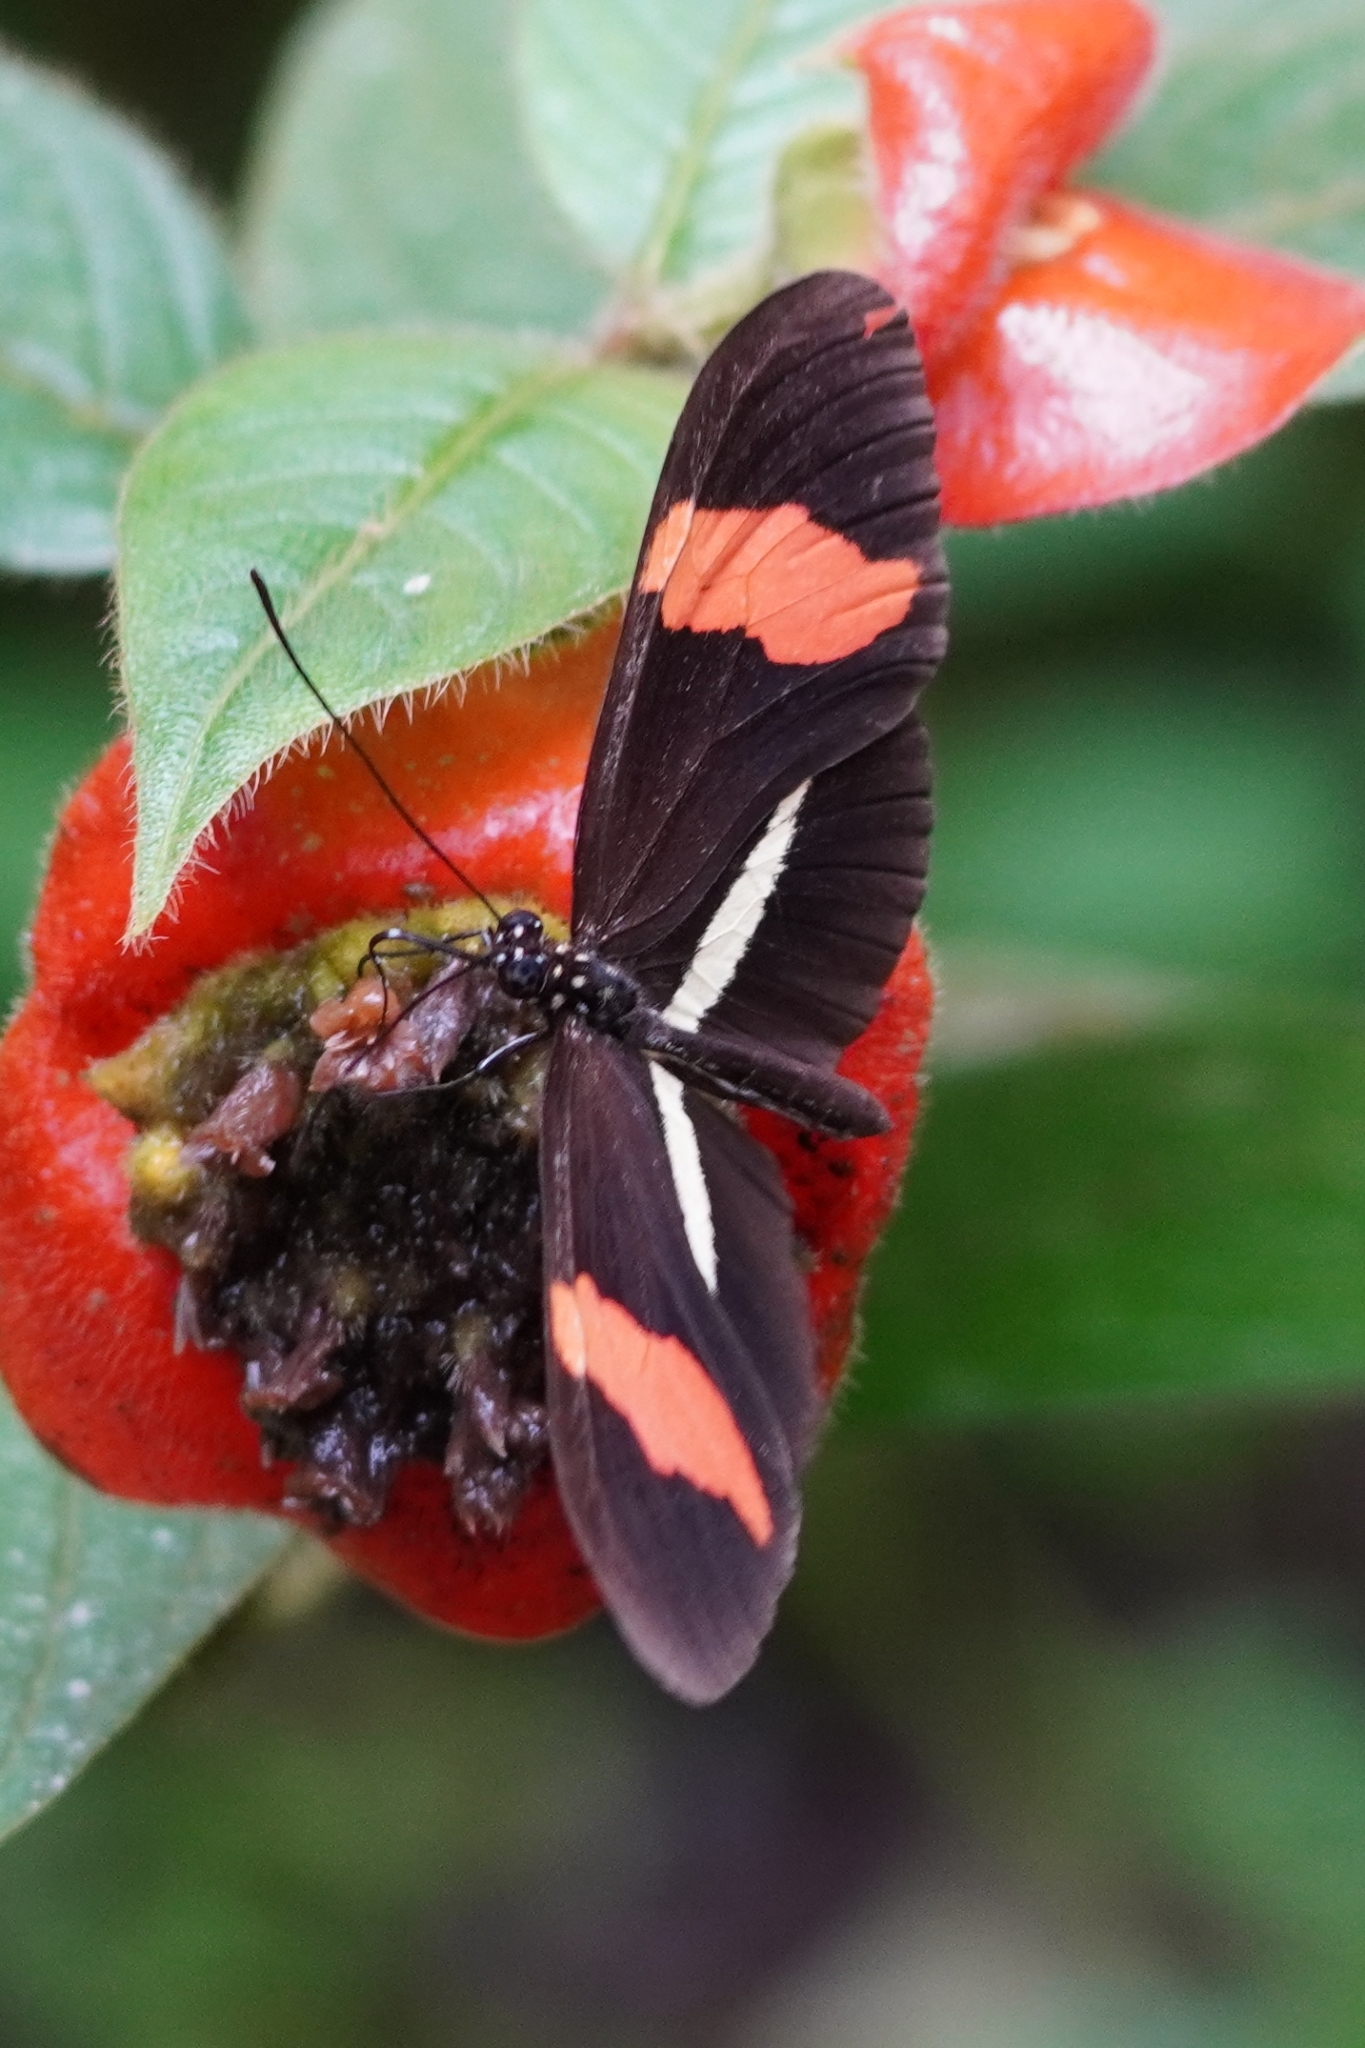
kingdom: Animalia
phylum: Arthropoda
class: Insecta
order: Lepidoptera
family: Nymphalidae
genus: Tirumala
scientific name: Tirumala petiverana
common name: Blue monarch
